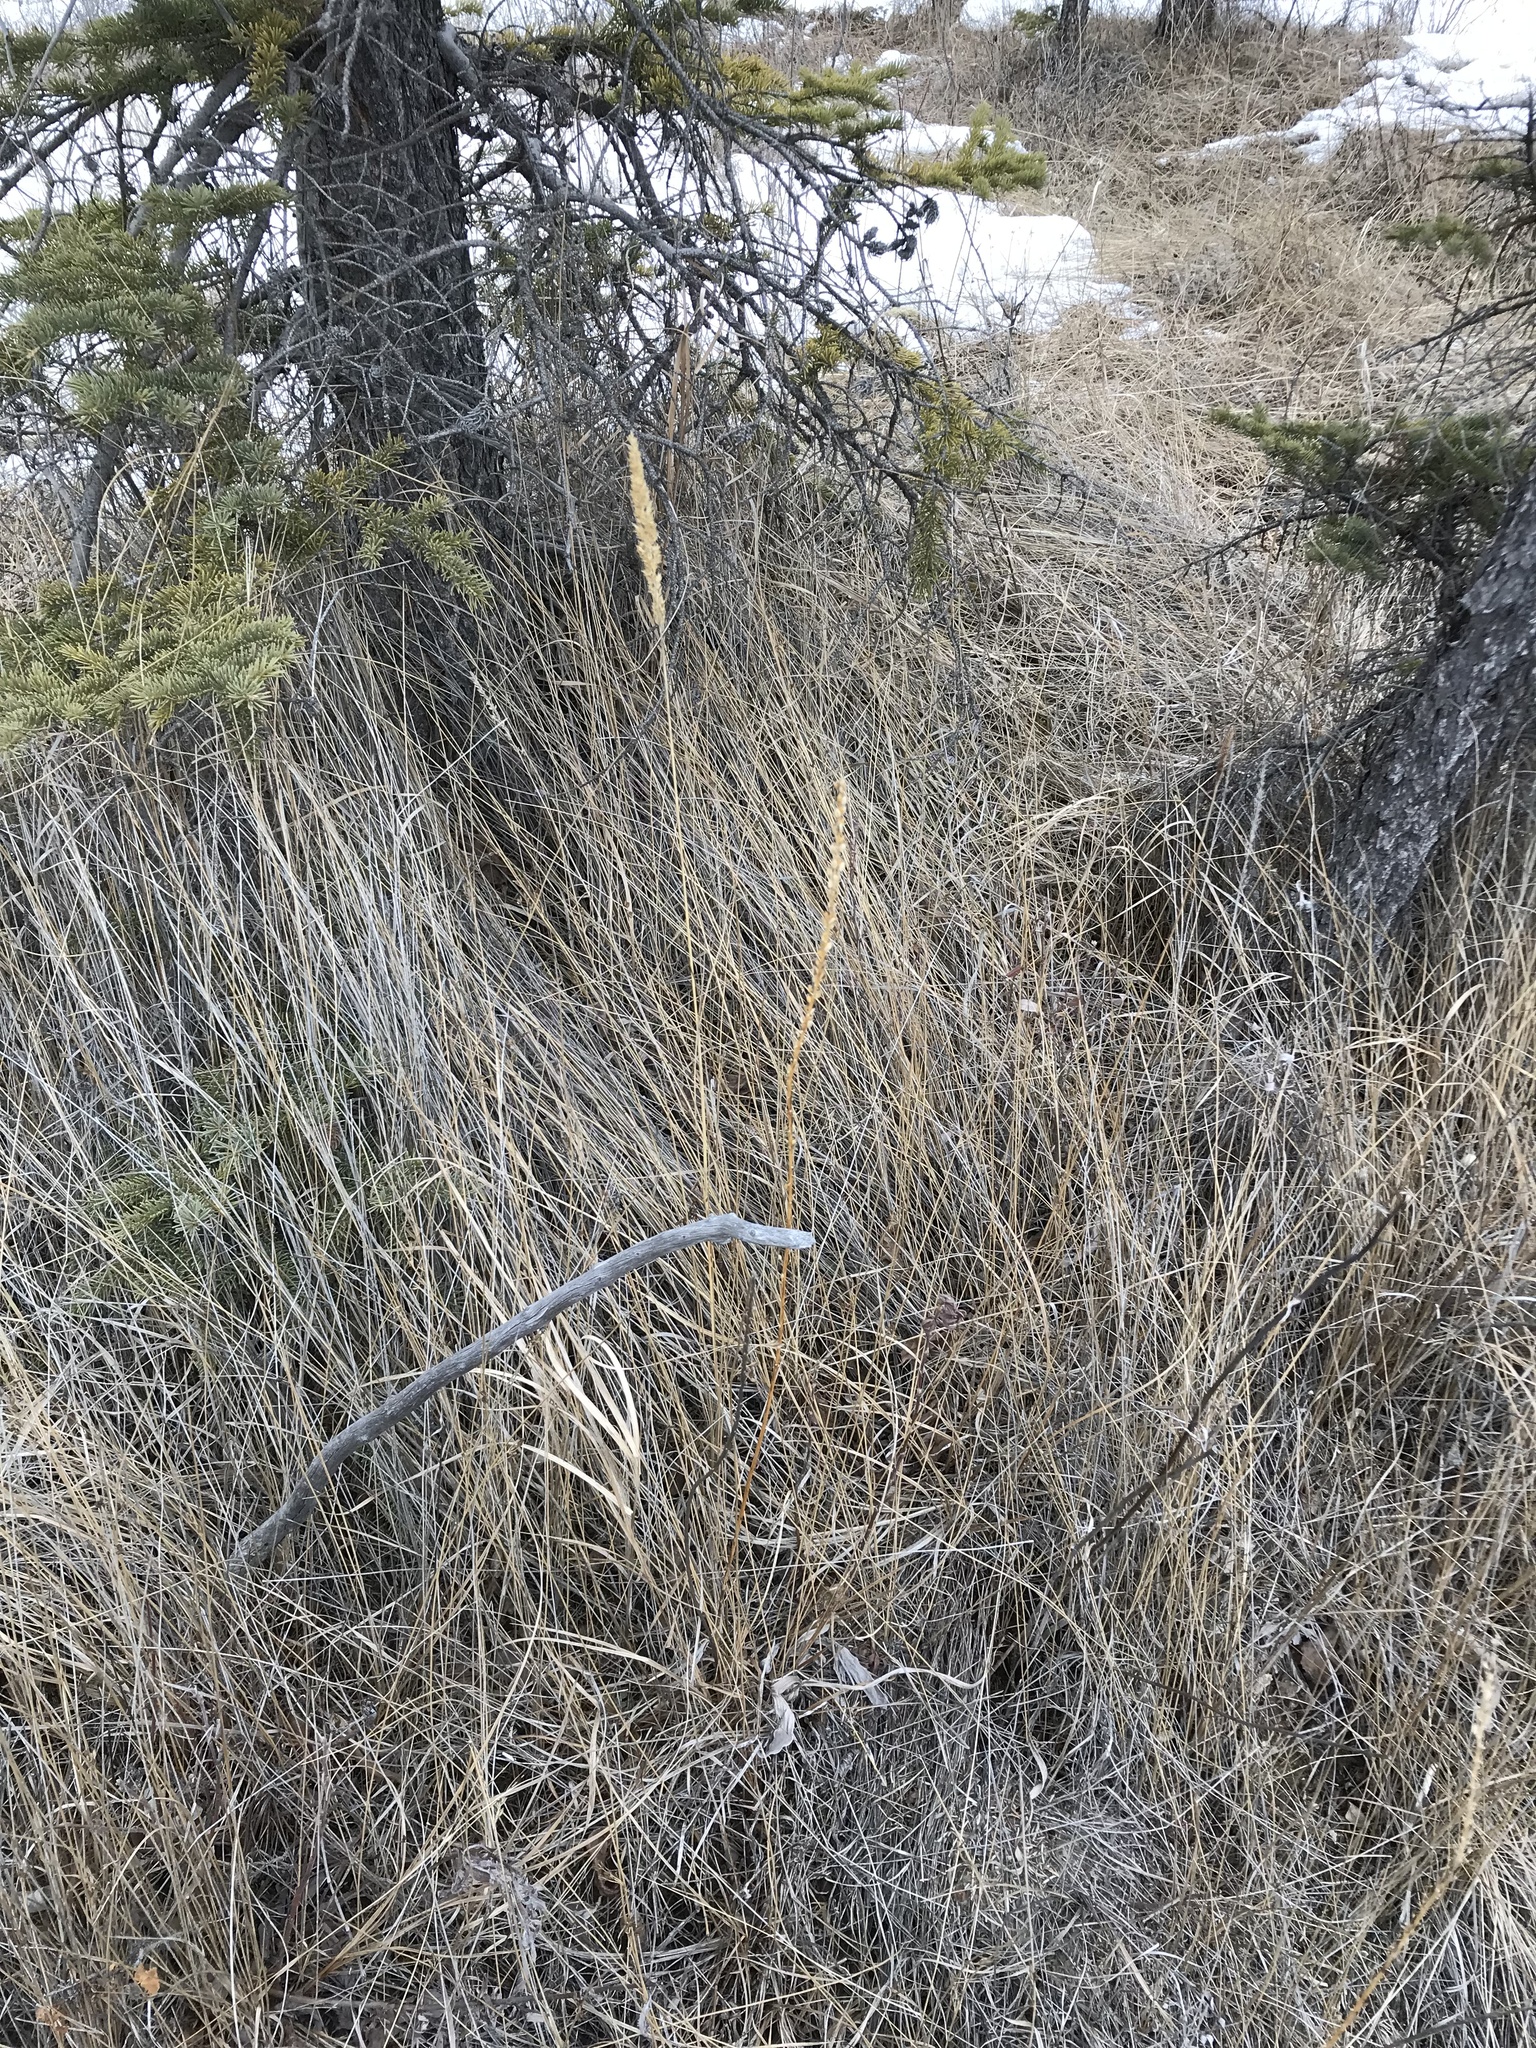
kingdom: Plantae
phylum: Tracheophyta
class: Liliopsida
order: Alismatales
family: Juncaginaceae
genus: Triglochin
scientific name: Triglochin maritima
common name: Sea arrowgrass
